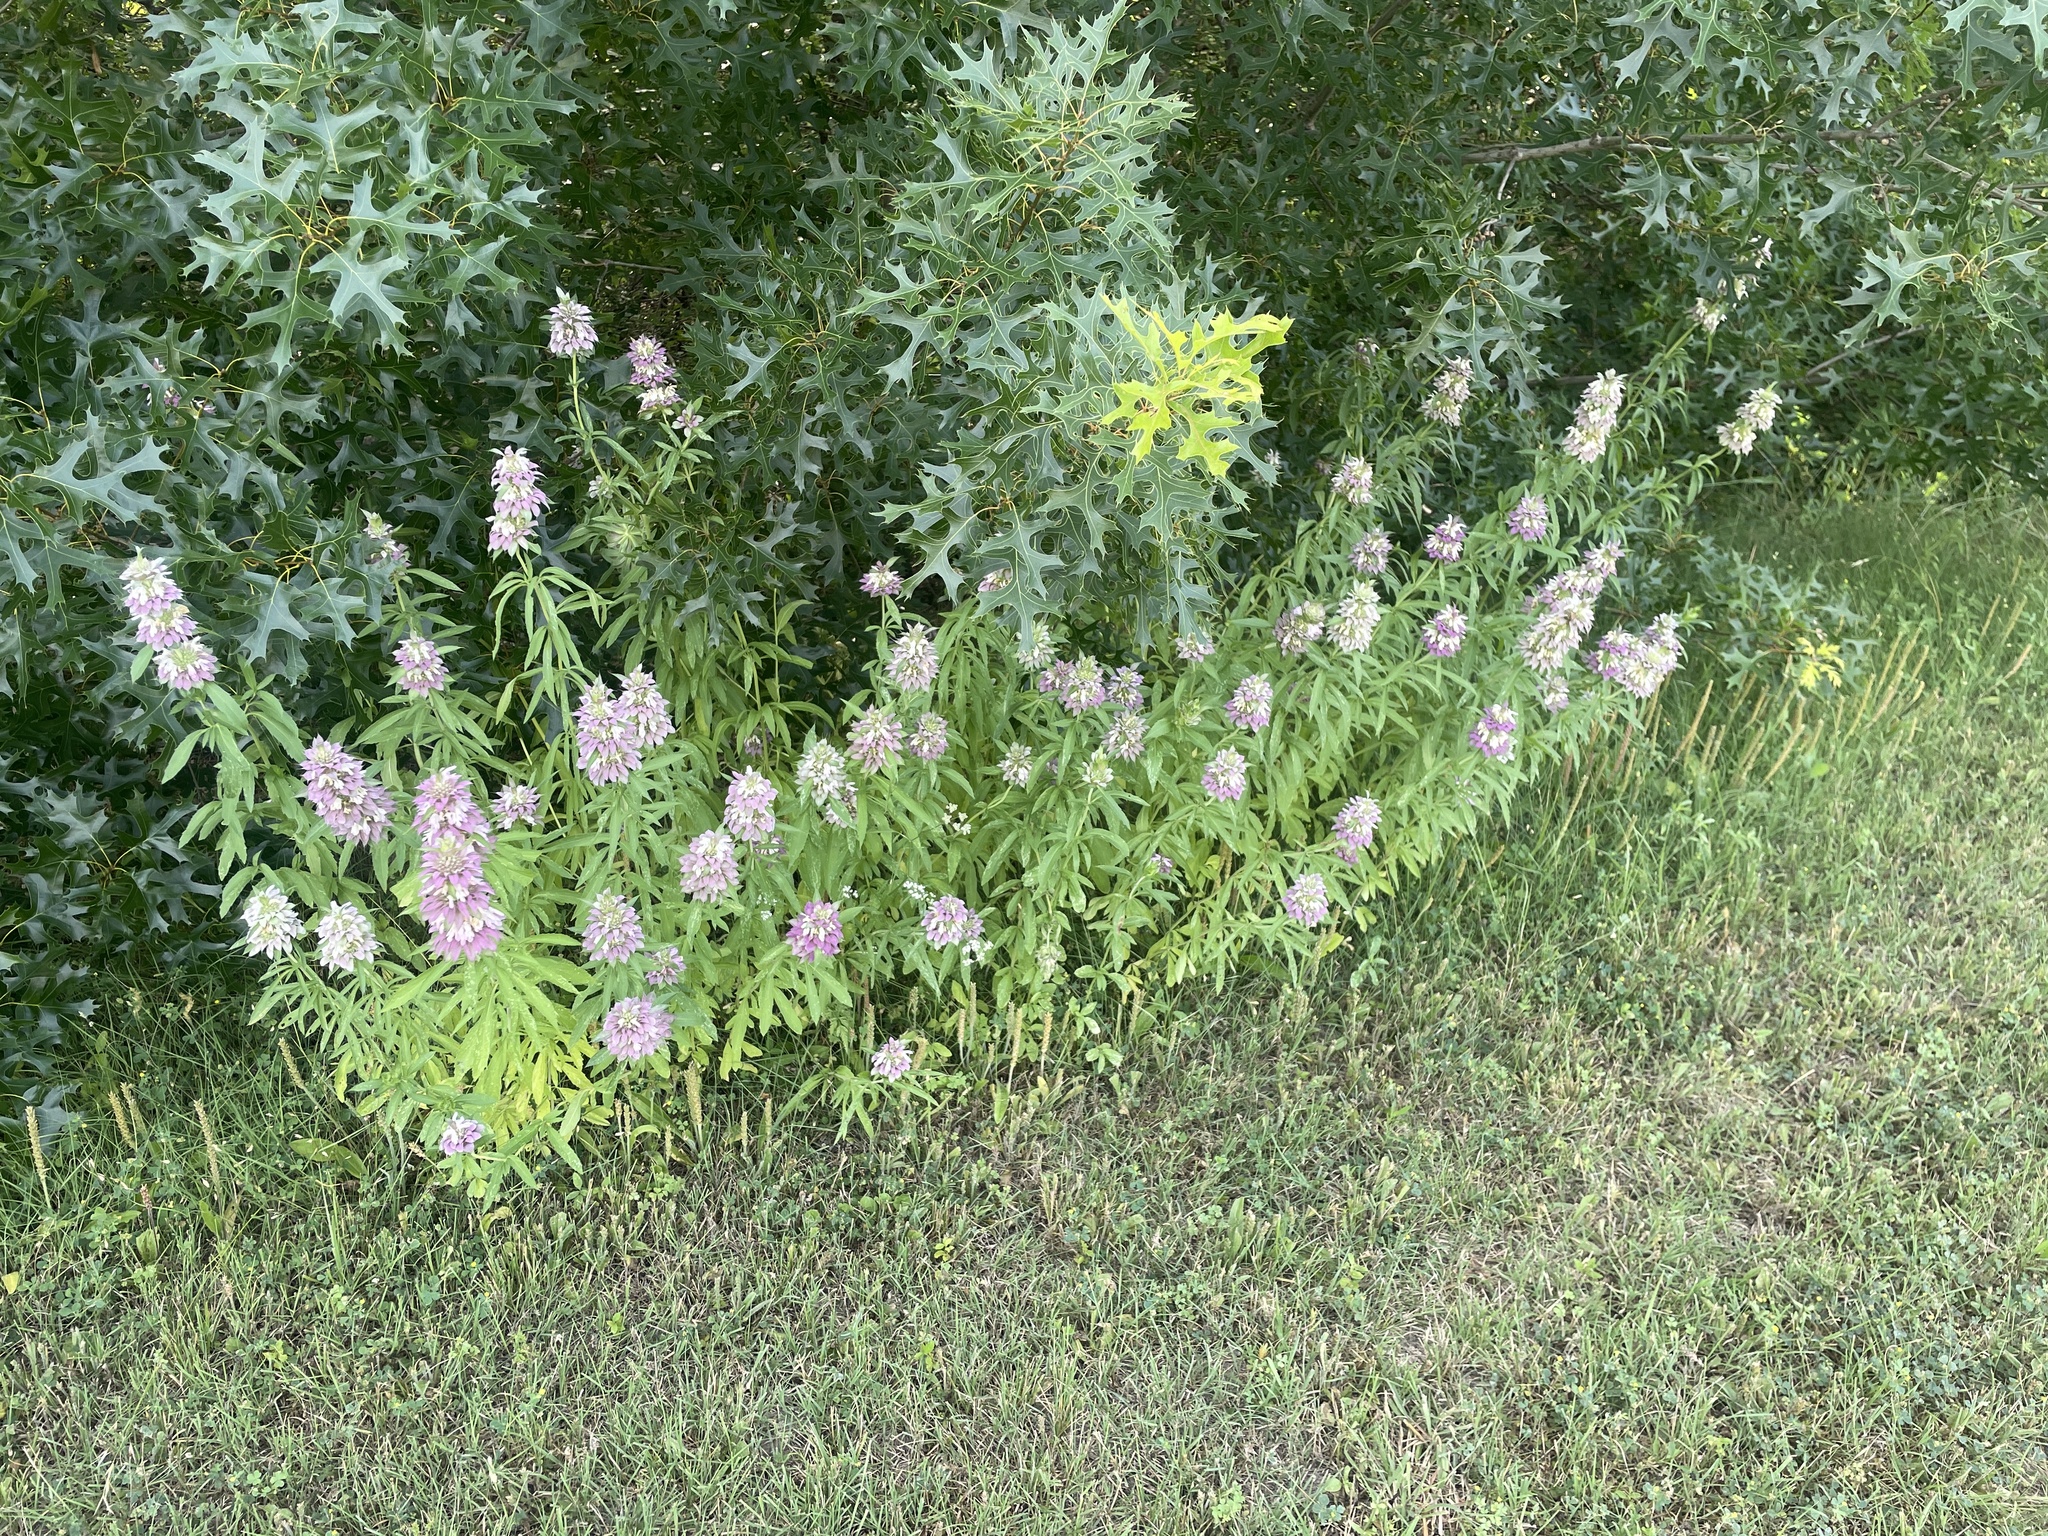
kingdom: Plantae
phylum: Tracheophyta
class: Magnoliopsida
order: Lamiales
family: Lamiaceae
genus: Monarda
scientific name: Monarda citriodora
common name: Lemon beebalm
